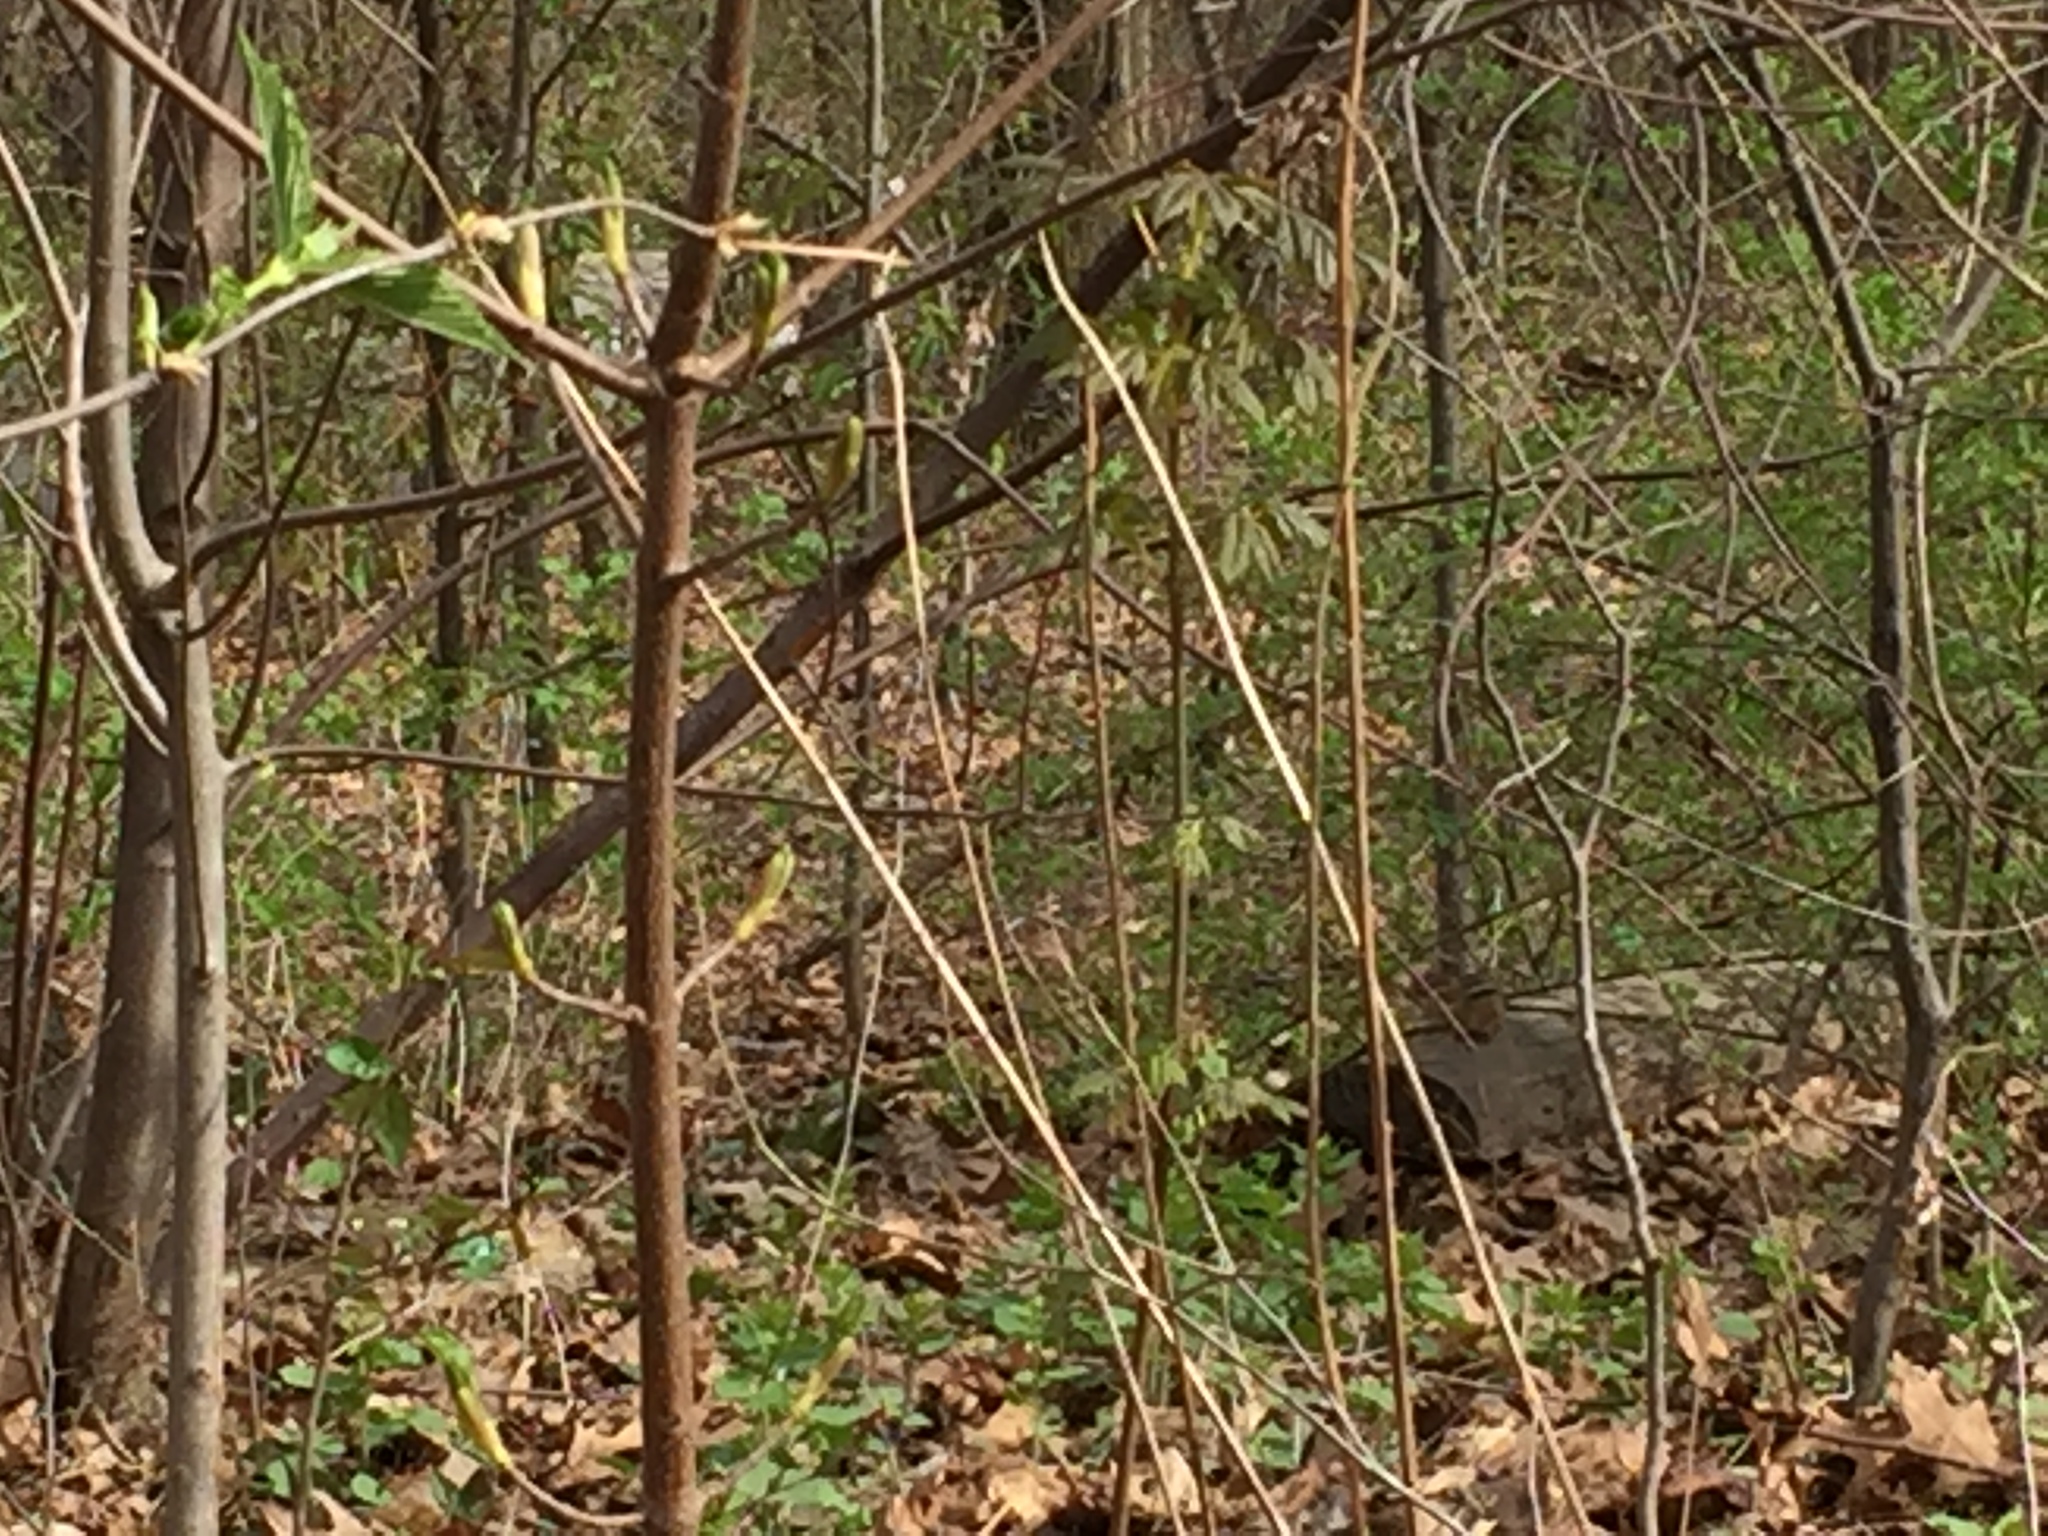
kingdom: Animalia
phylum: Chordata
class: Mammalia
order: Rodentia
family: Sciuridae
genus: Tamias
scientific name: Tamias striatus
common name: Eastern chipmunk
